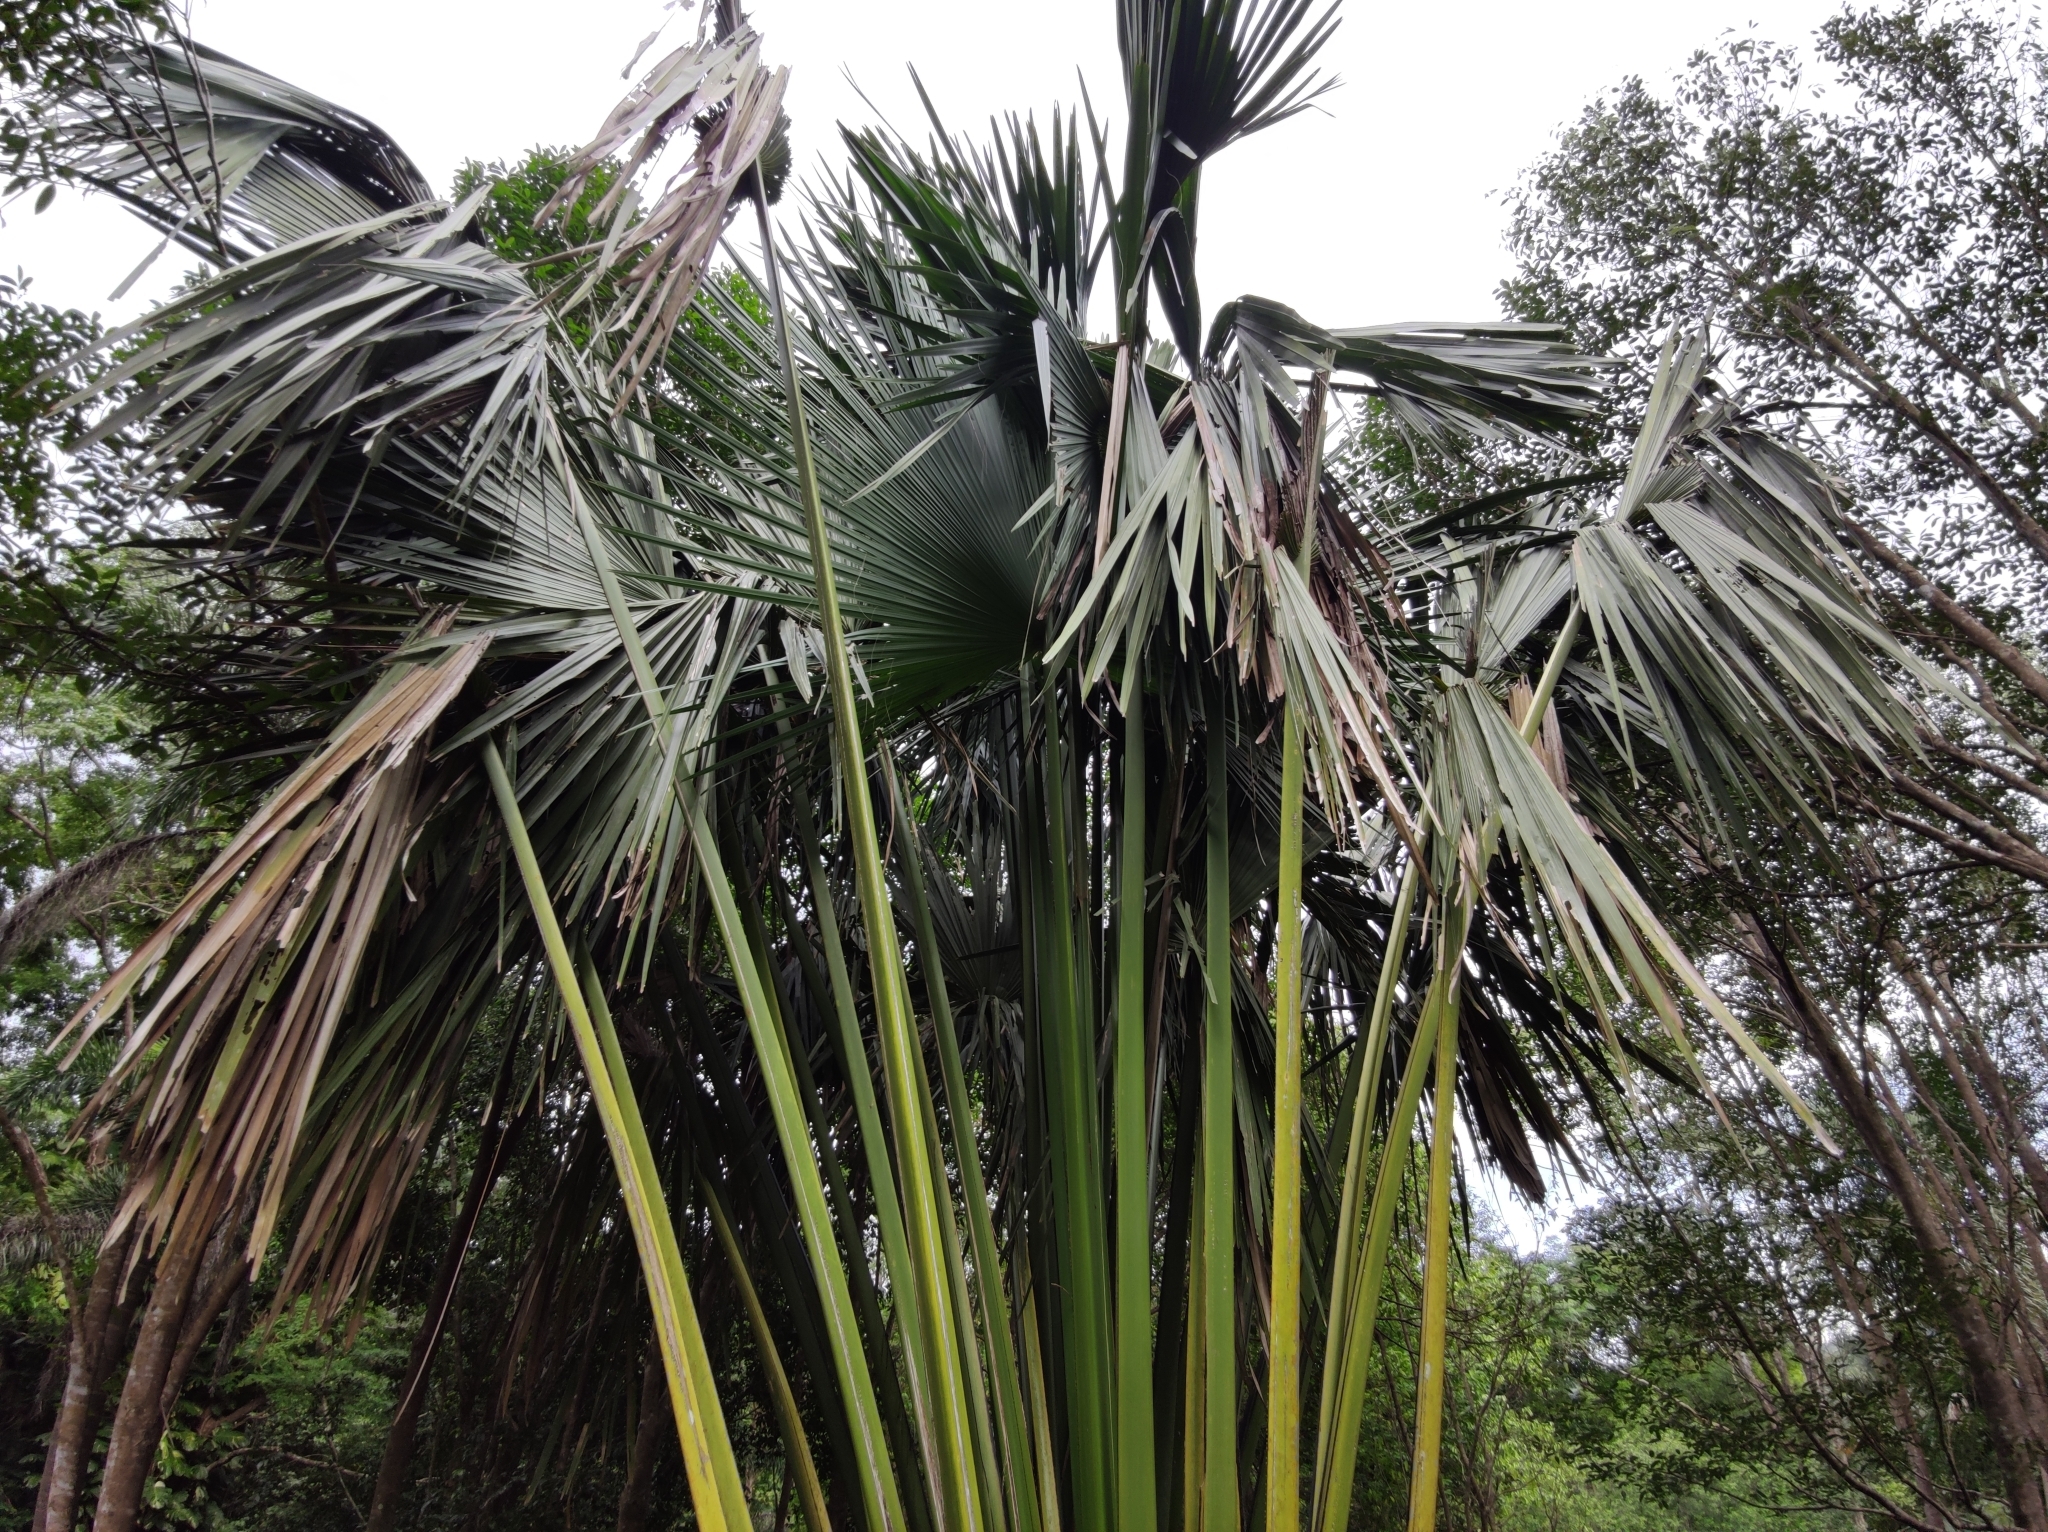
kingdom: Plantae
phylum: Tracheophyta
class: Liliopsida
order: Arecales
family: Arecaceae
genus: Corypha
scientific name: Corypha umbraculifera
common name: Talipot palm
